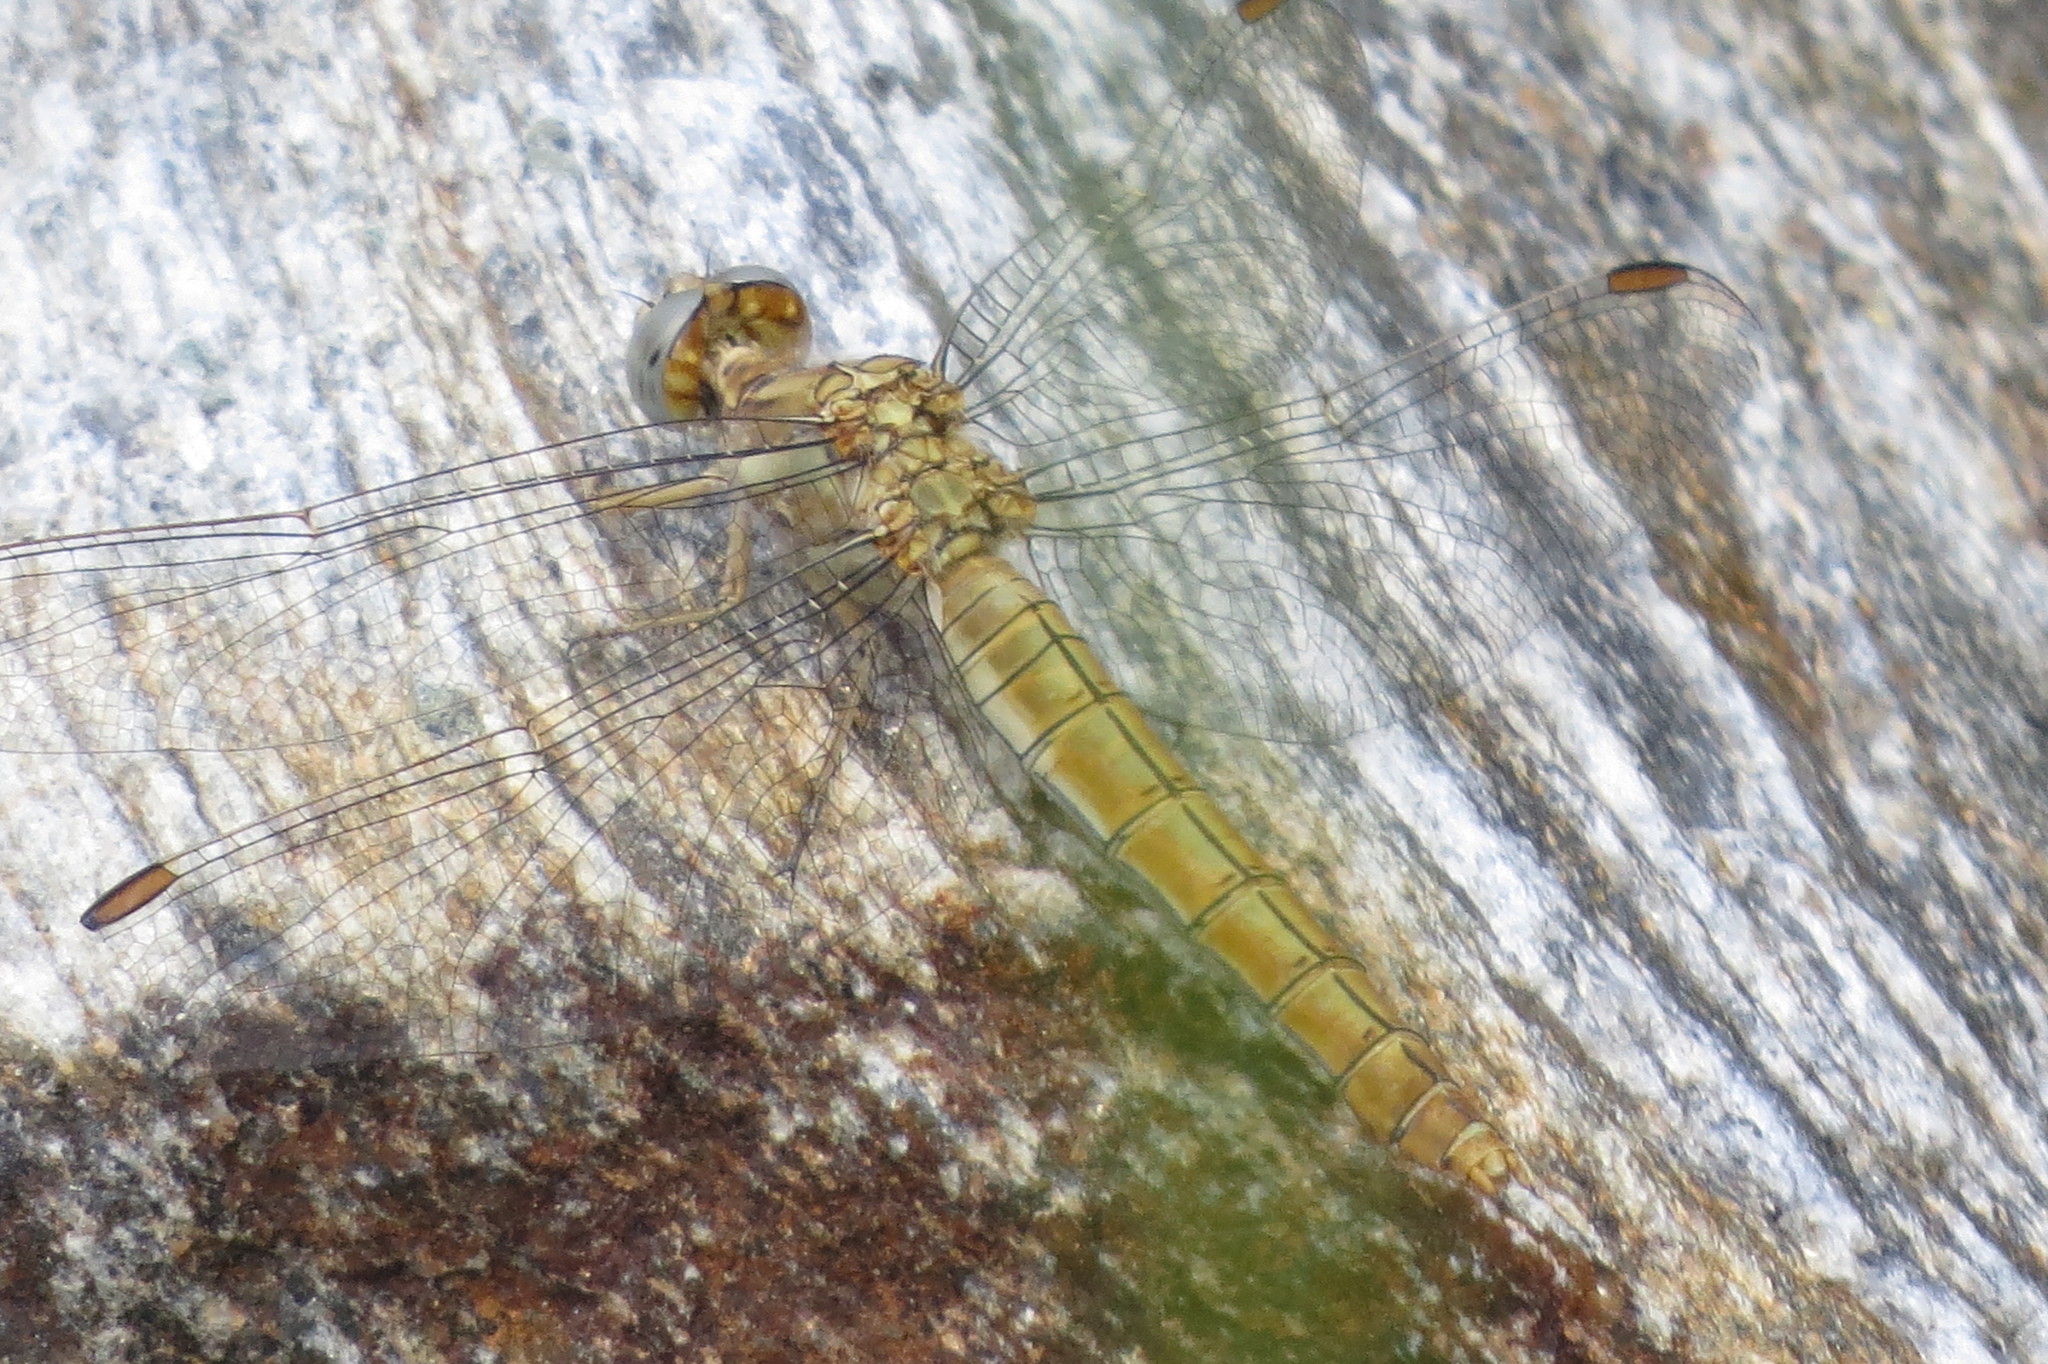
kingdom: Animalia
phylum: Arthropoda
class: Insecta
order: Odonata
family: Libellulidae
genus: Orthetrum
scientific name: Orthetrum brunneum
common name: Southern skimmer
